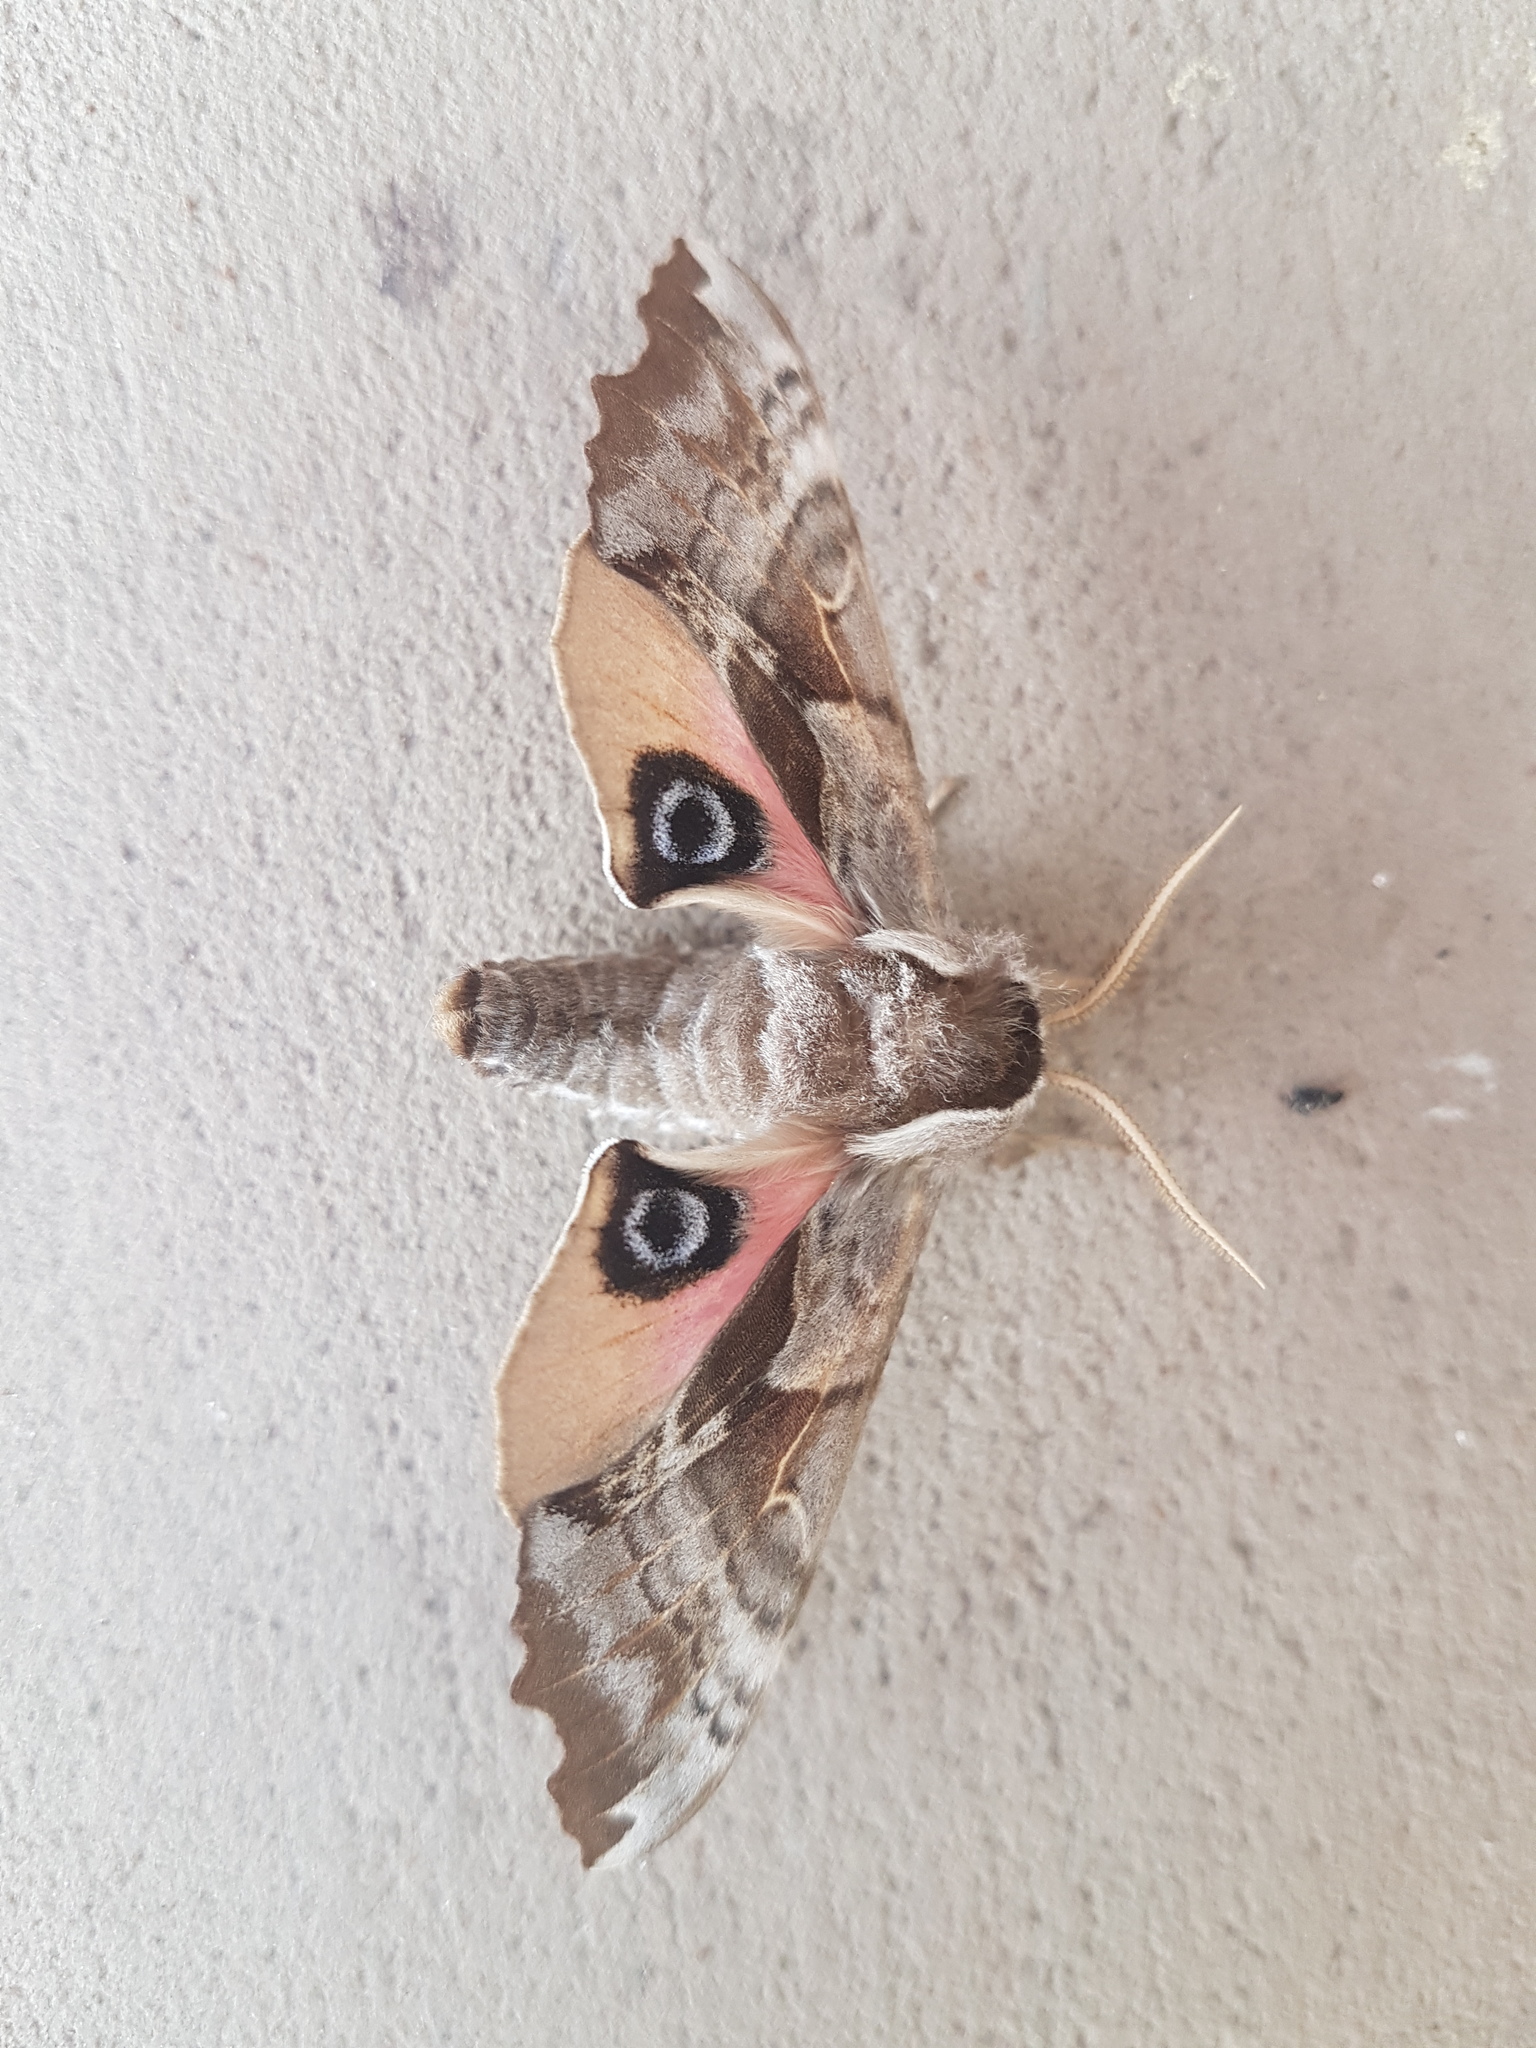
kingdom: Animalia
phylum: Arthropoda
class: Insecta
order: Lepidoptera
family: Sphingidae
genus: Smerinthus
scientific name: Smerinthus cerisyi
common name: Cerisy's sphinx moth
